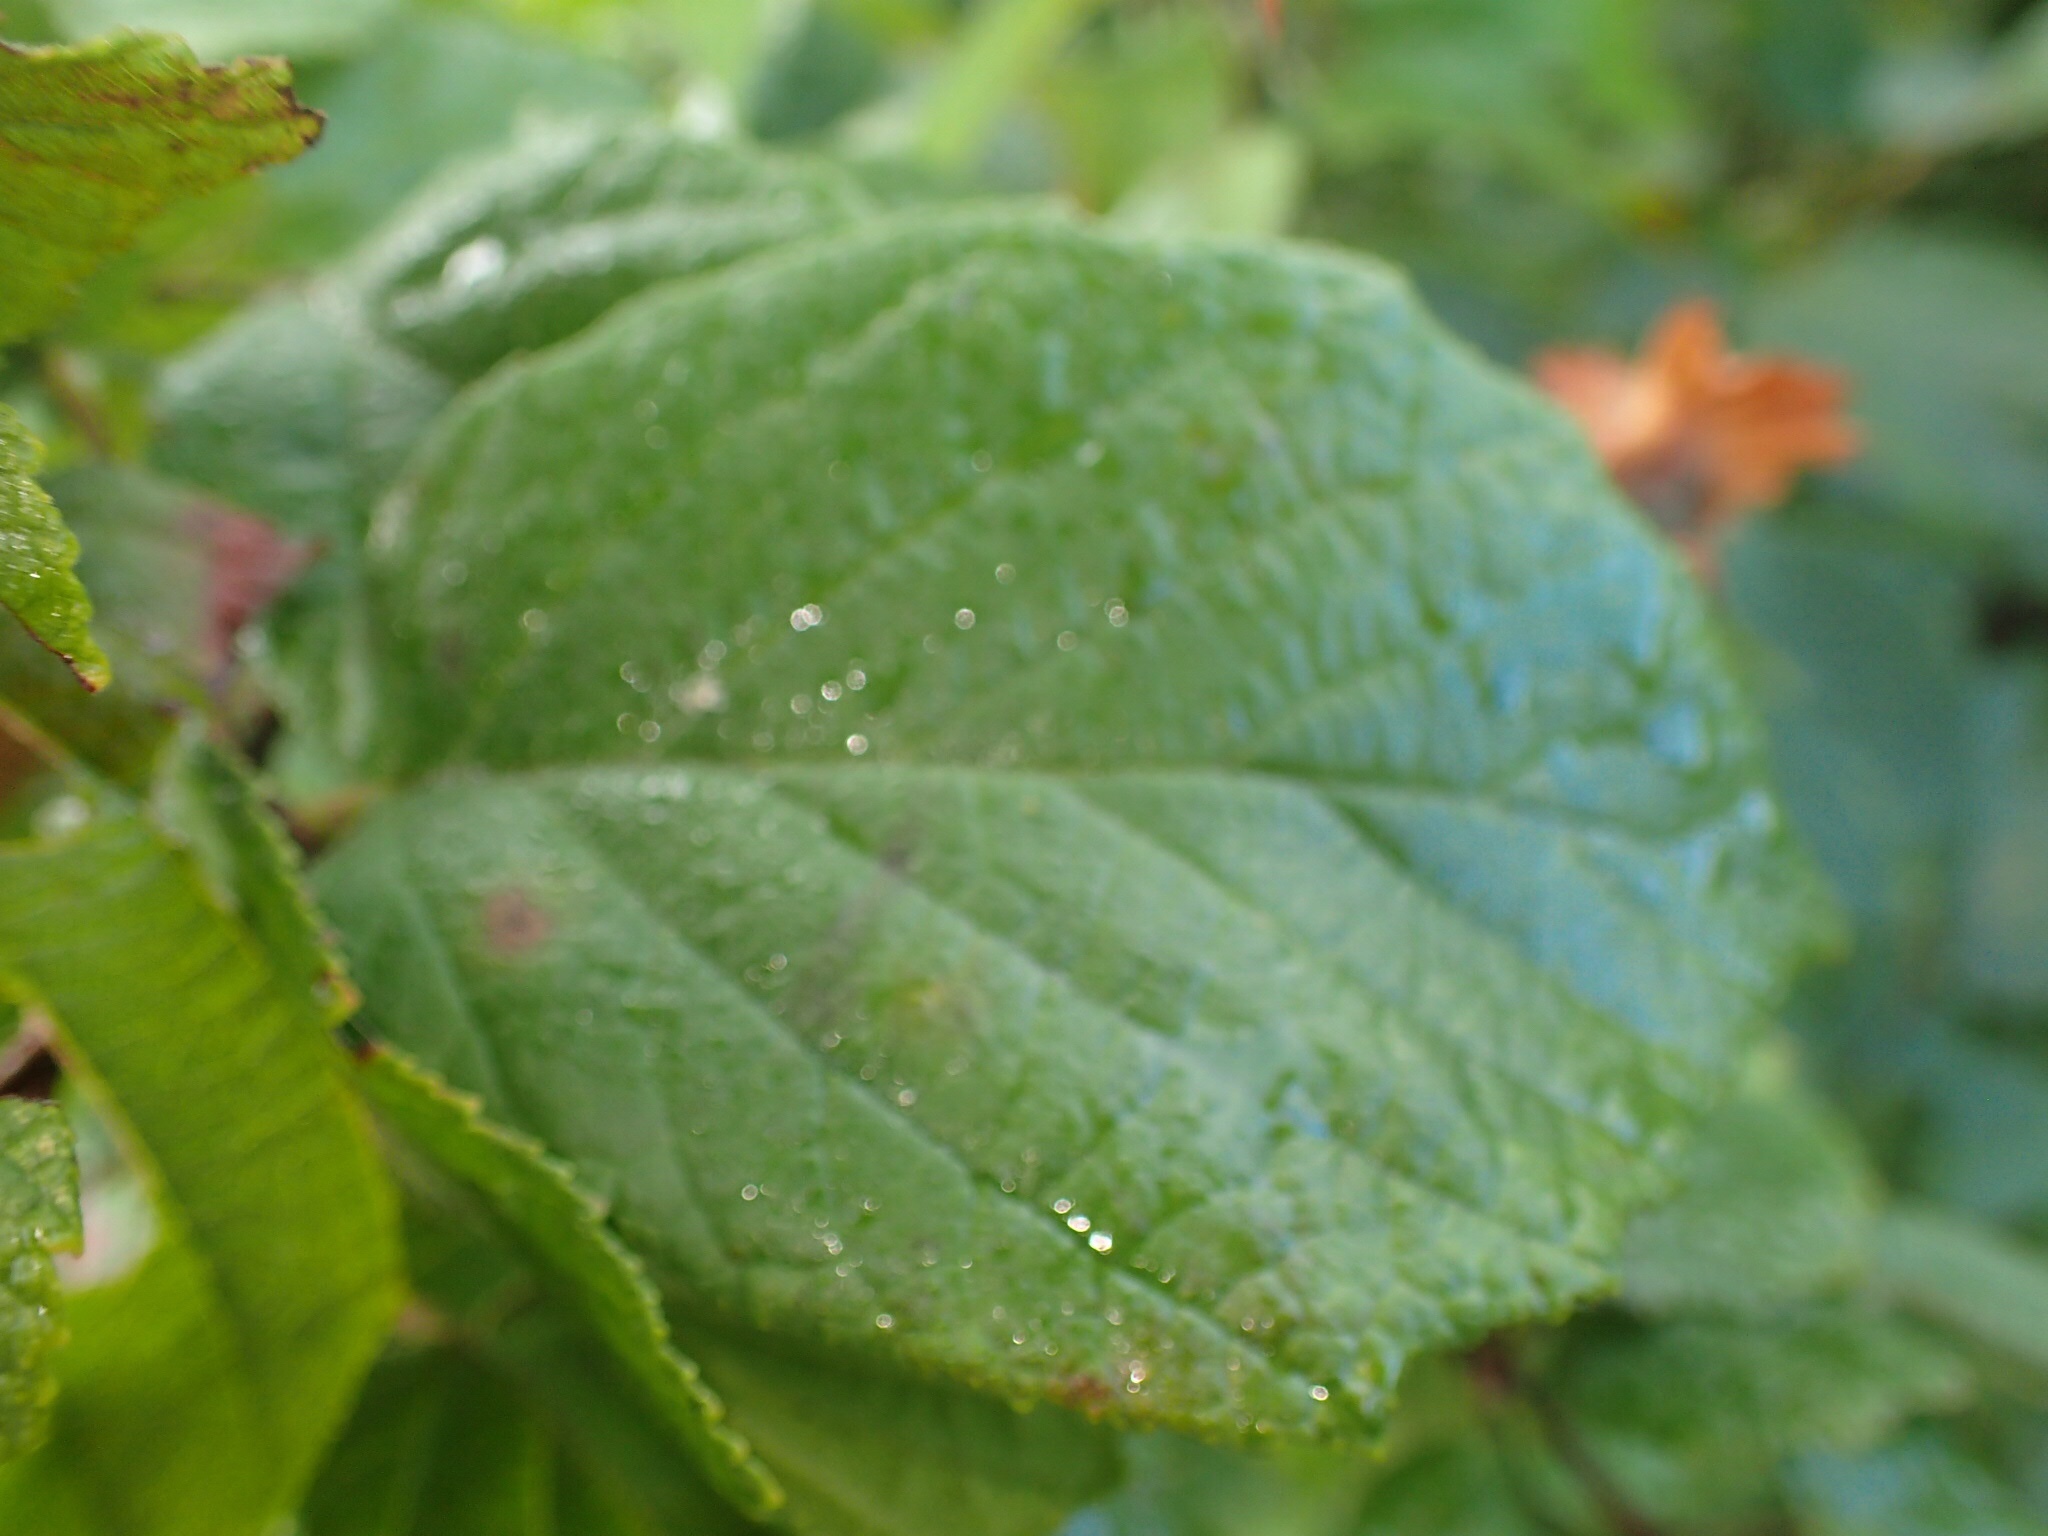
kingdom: Plantae
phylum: Tracheophyta
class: Magnoliopsida
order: Fagales
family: Betulaceae
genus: Corylus
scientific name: Corylus americana
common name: American hazel
